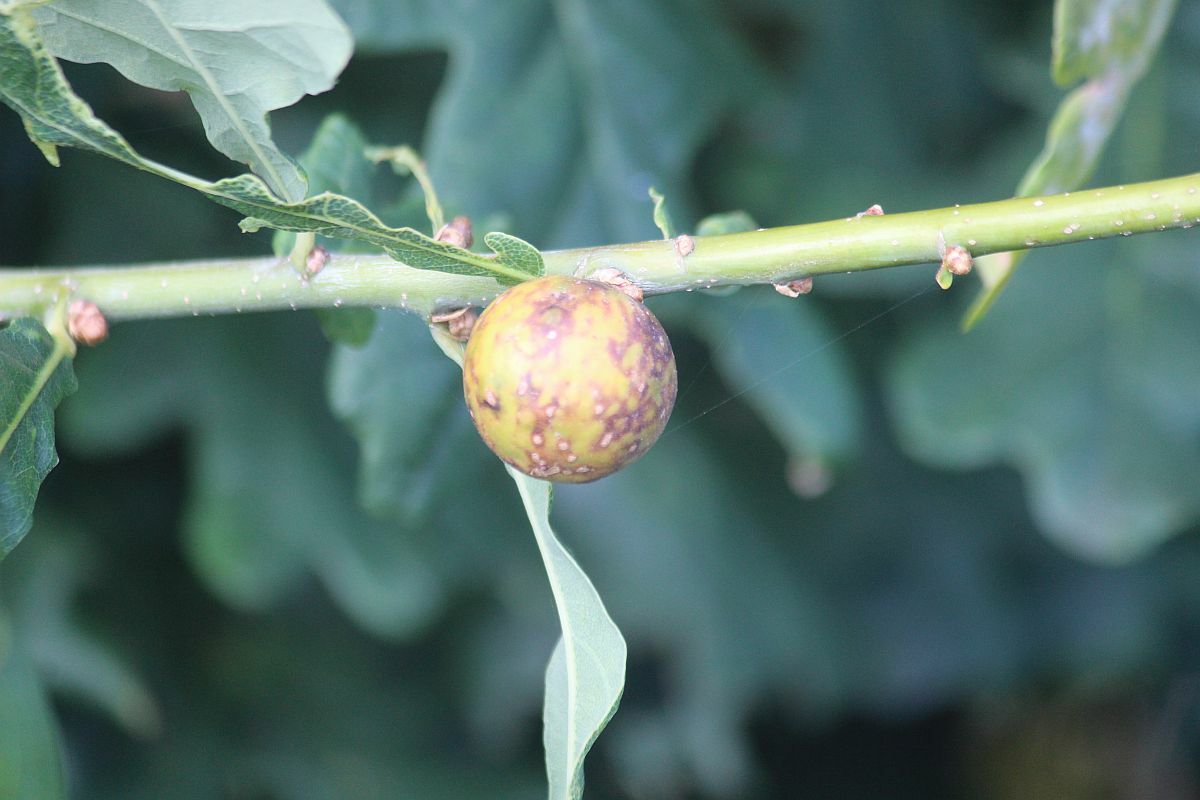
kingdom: Animalia
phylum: Arthropoda
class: Insecta
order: Hymenoptera
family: Cynipidae
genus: Andricus
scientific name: Andricus kollari
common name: Marble gall
